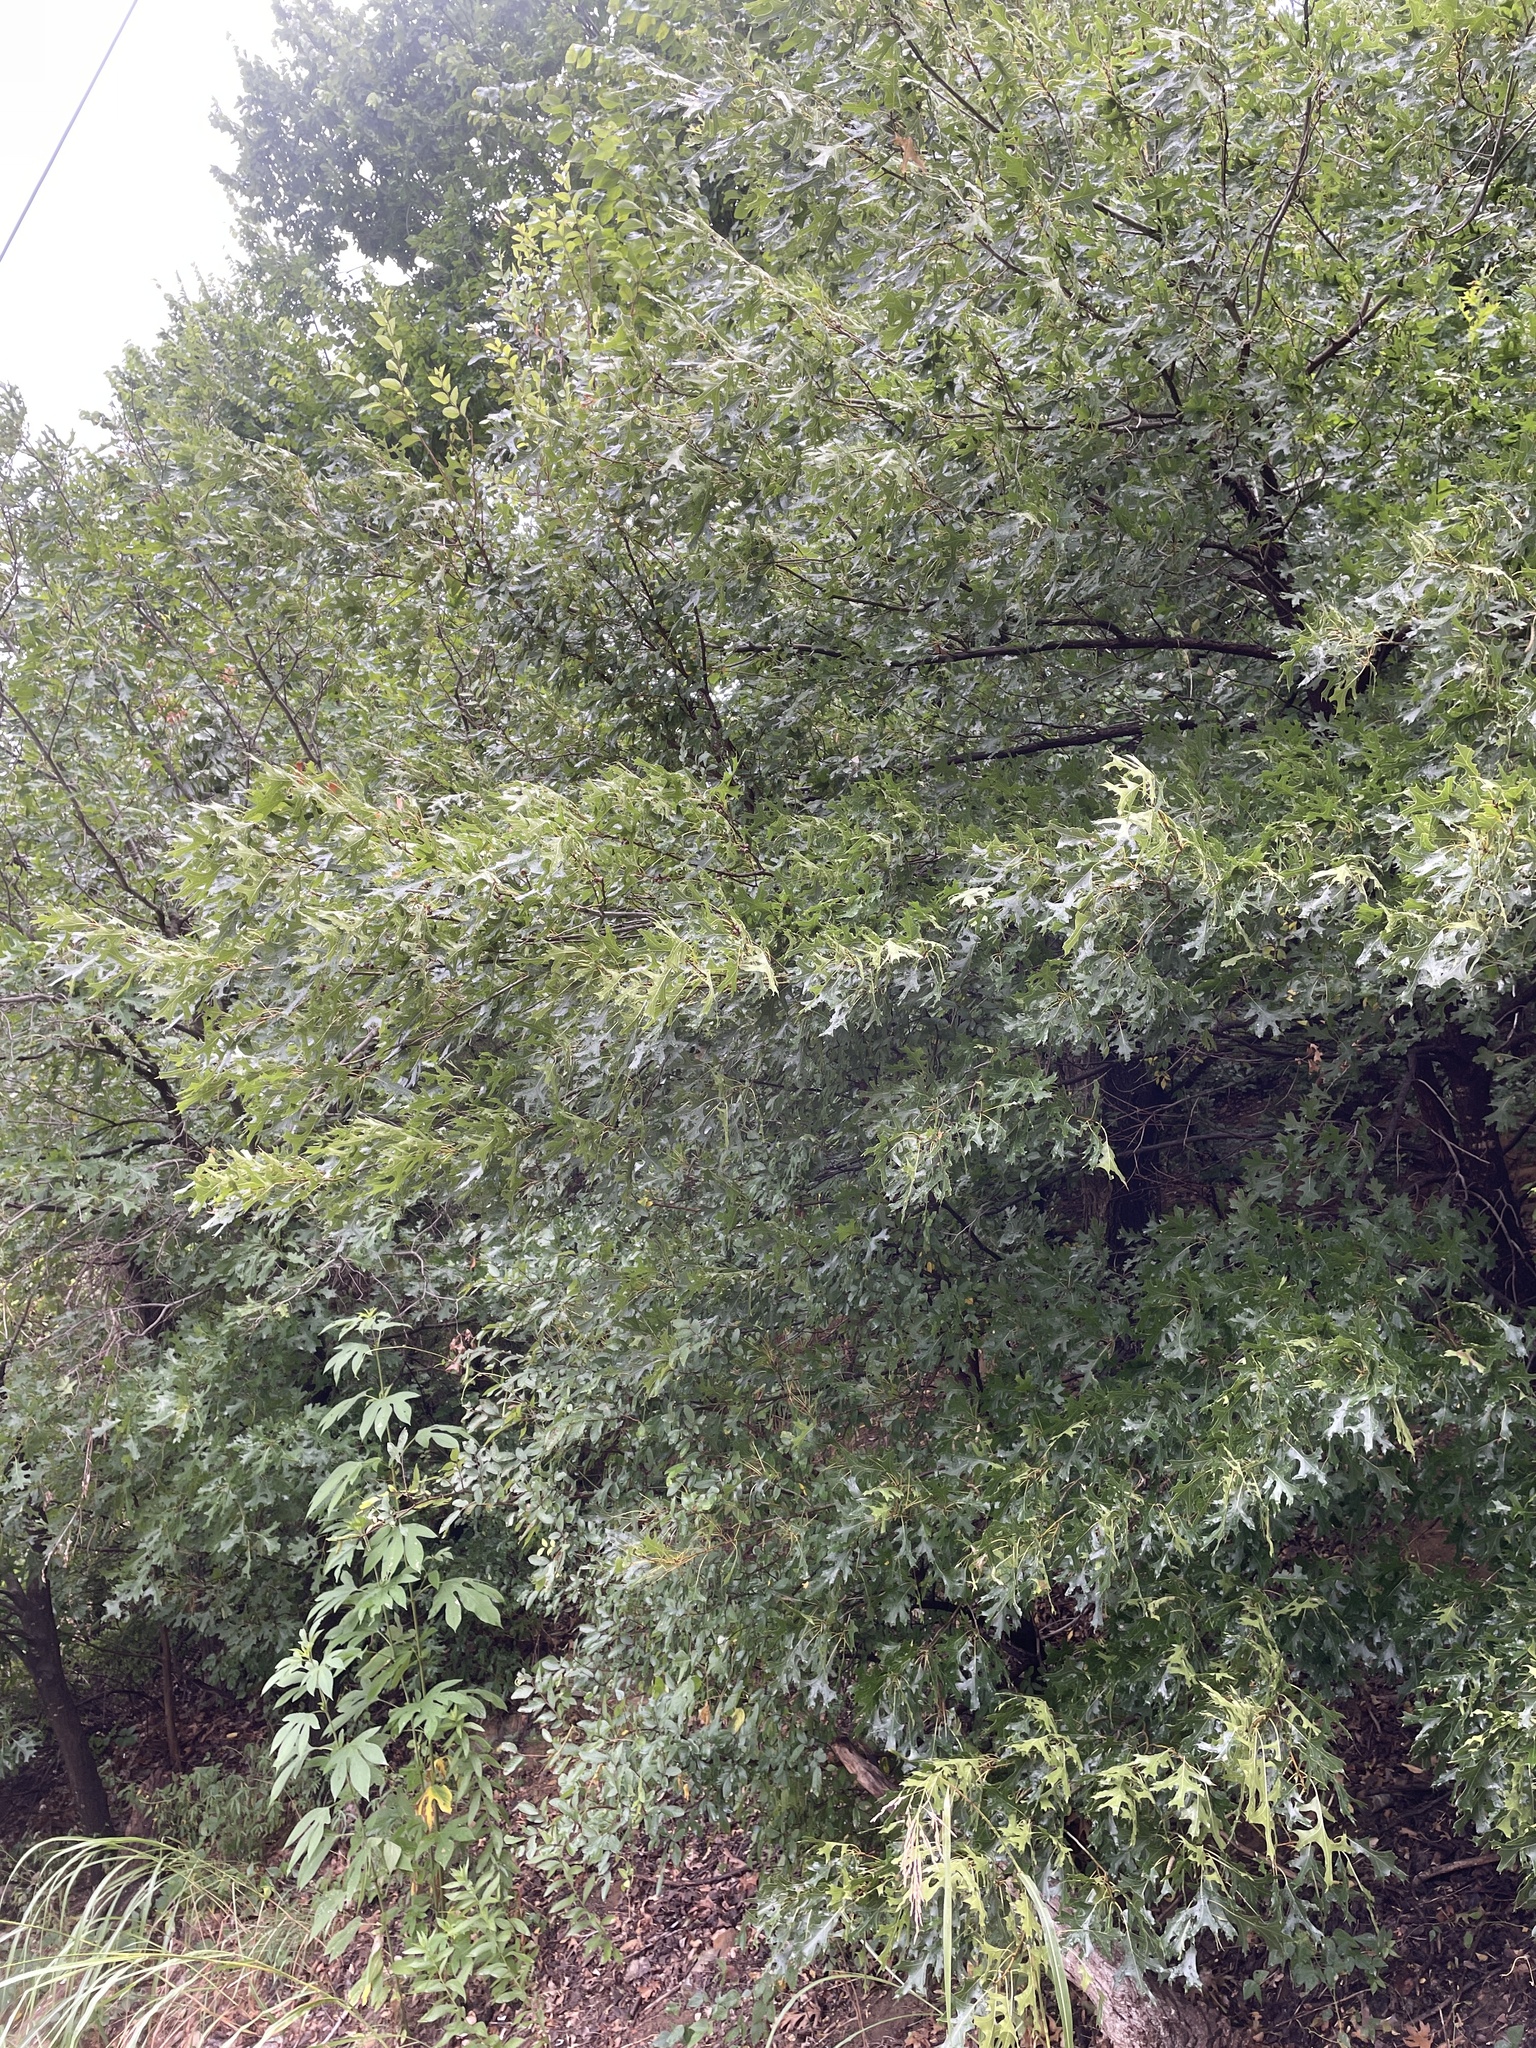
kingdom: Plantae
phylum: Tracheophyta
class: Magnoliopsida
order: Fagales
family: Fagaceae
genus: Quercus
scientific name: Quercus shumardii
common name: Shumard oak
